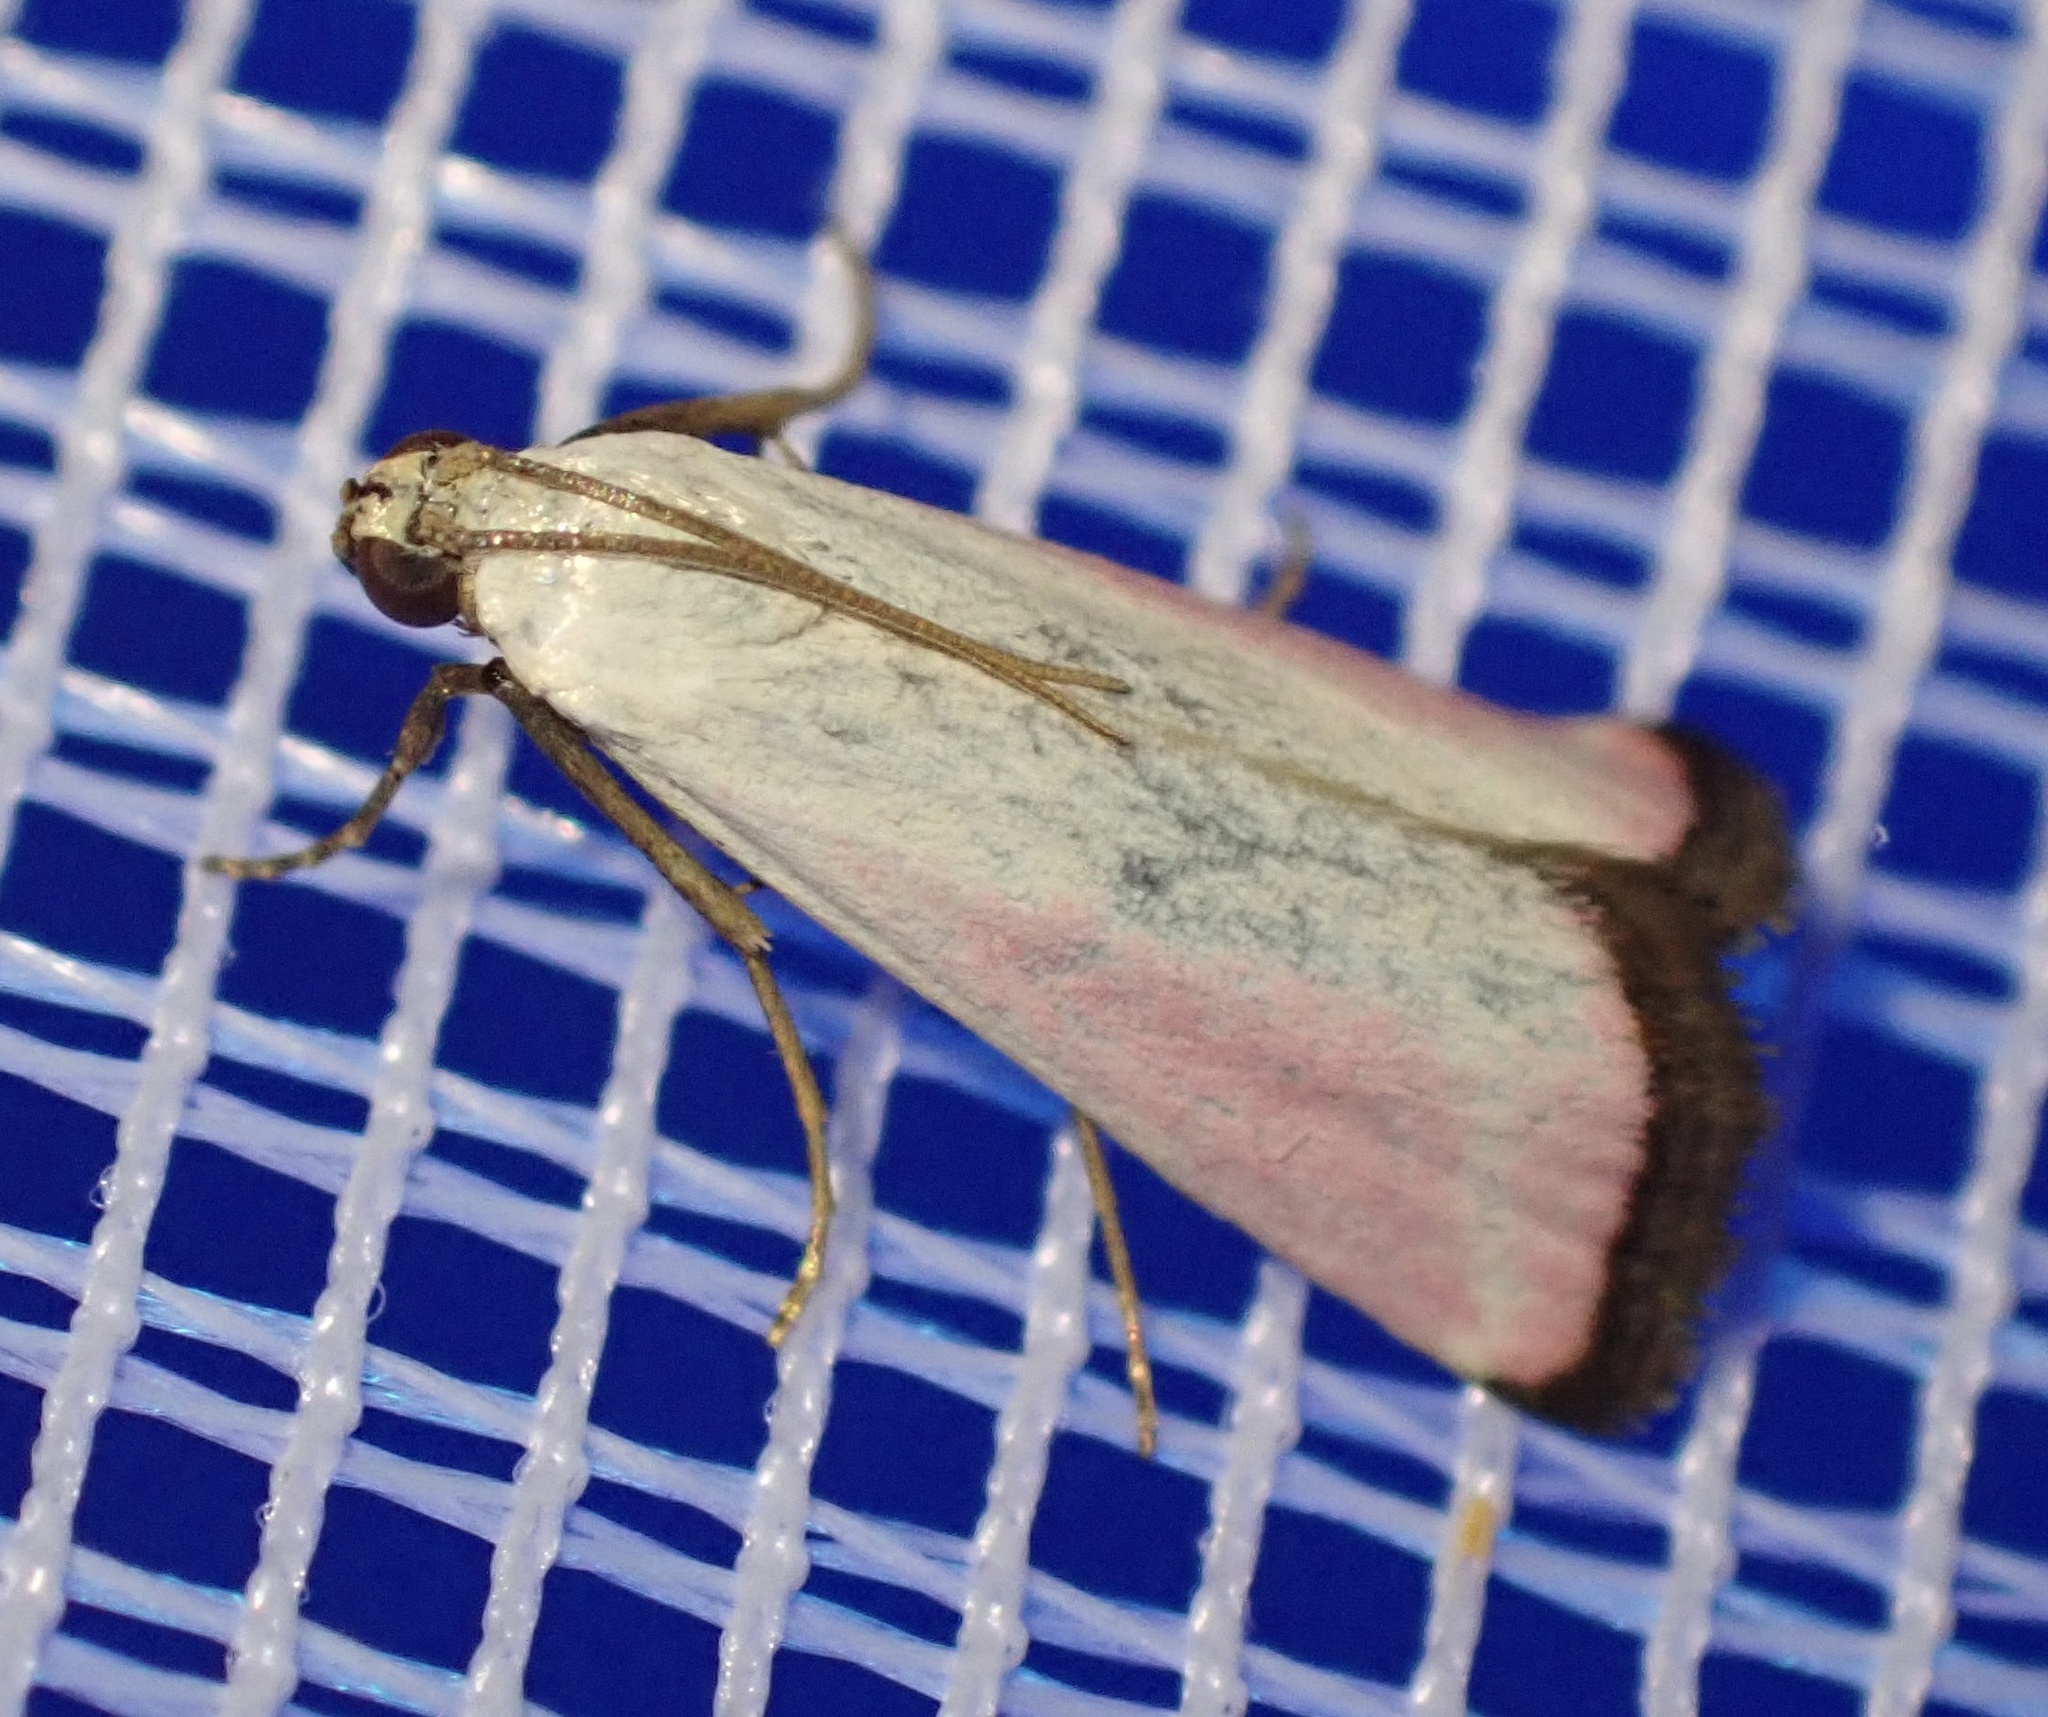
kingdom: Animalia
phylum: Arthropoda
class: Insecta
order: Lepidoptera
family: Pyralidae
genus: Eurhodope
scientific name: Eurhodope rosella
